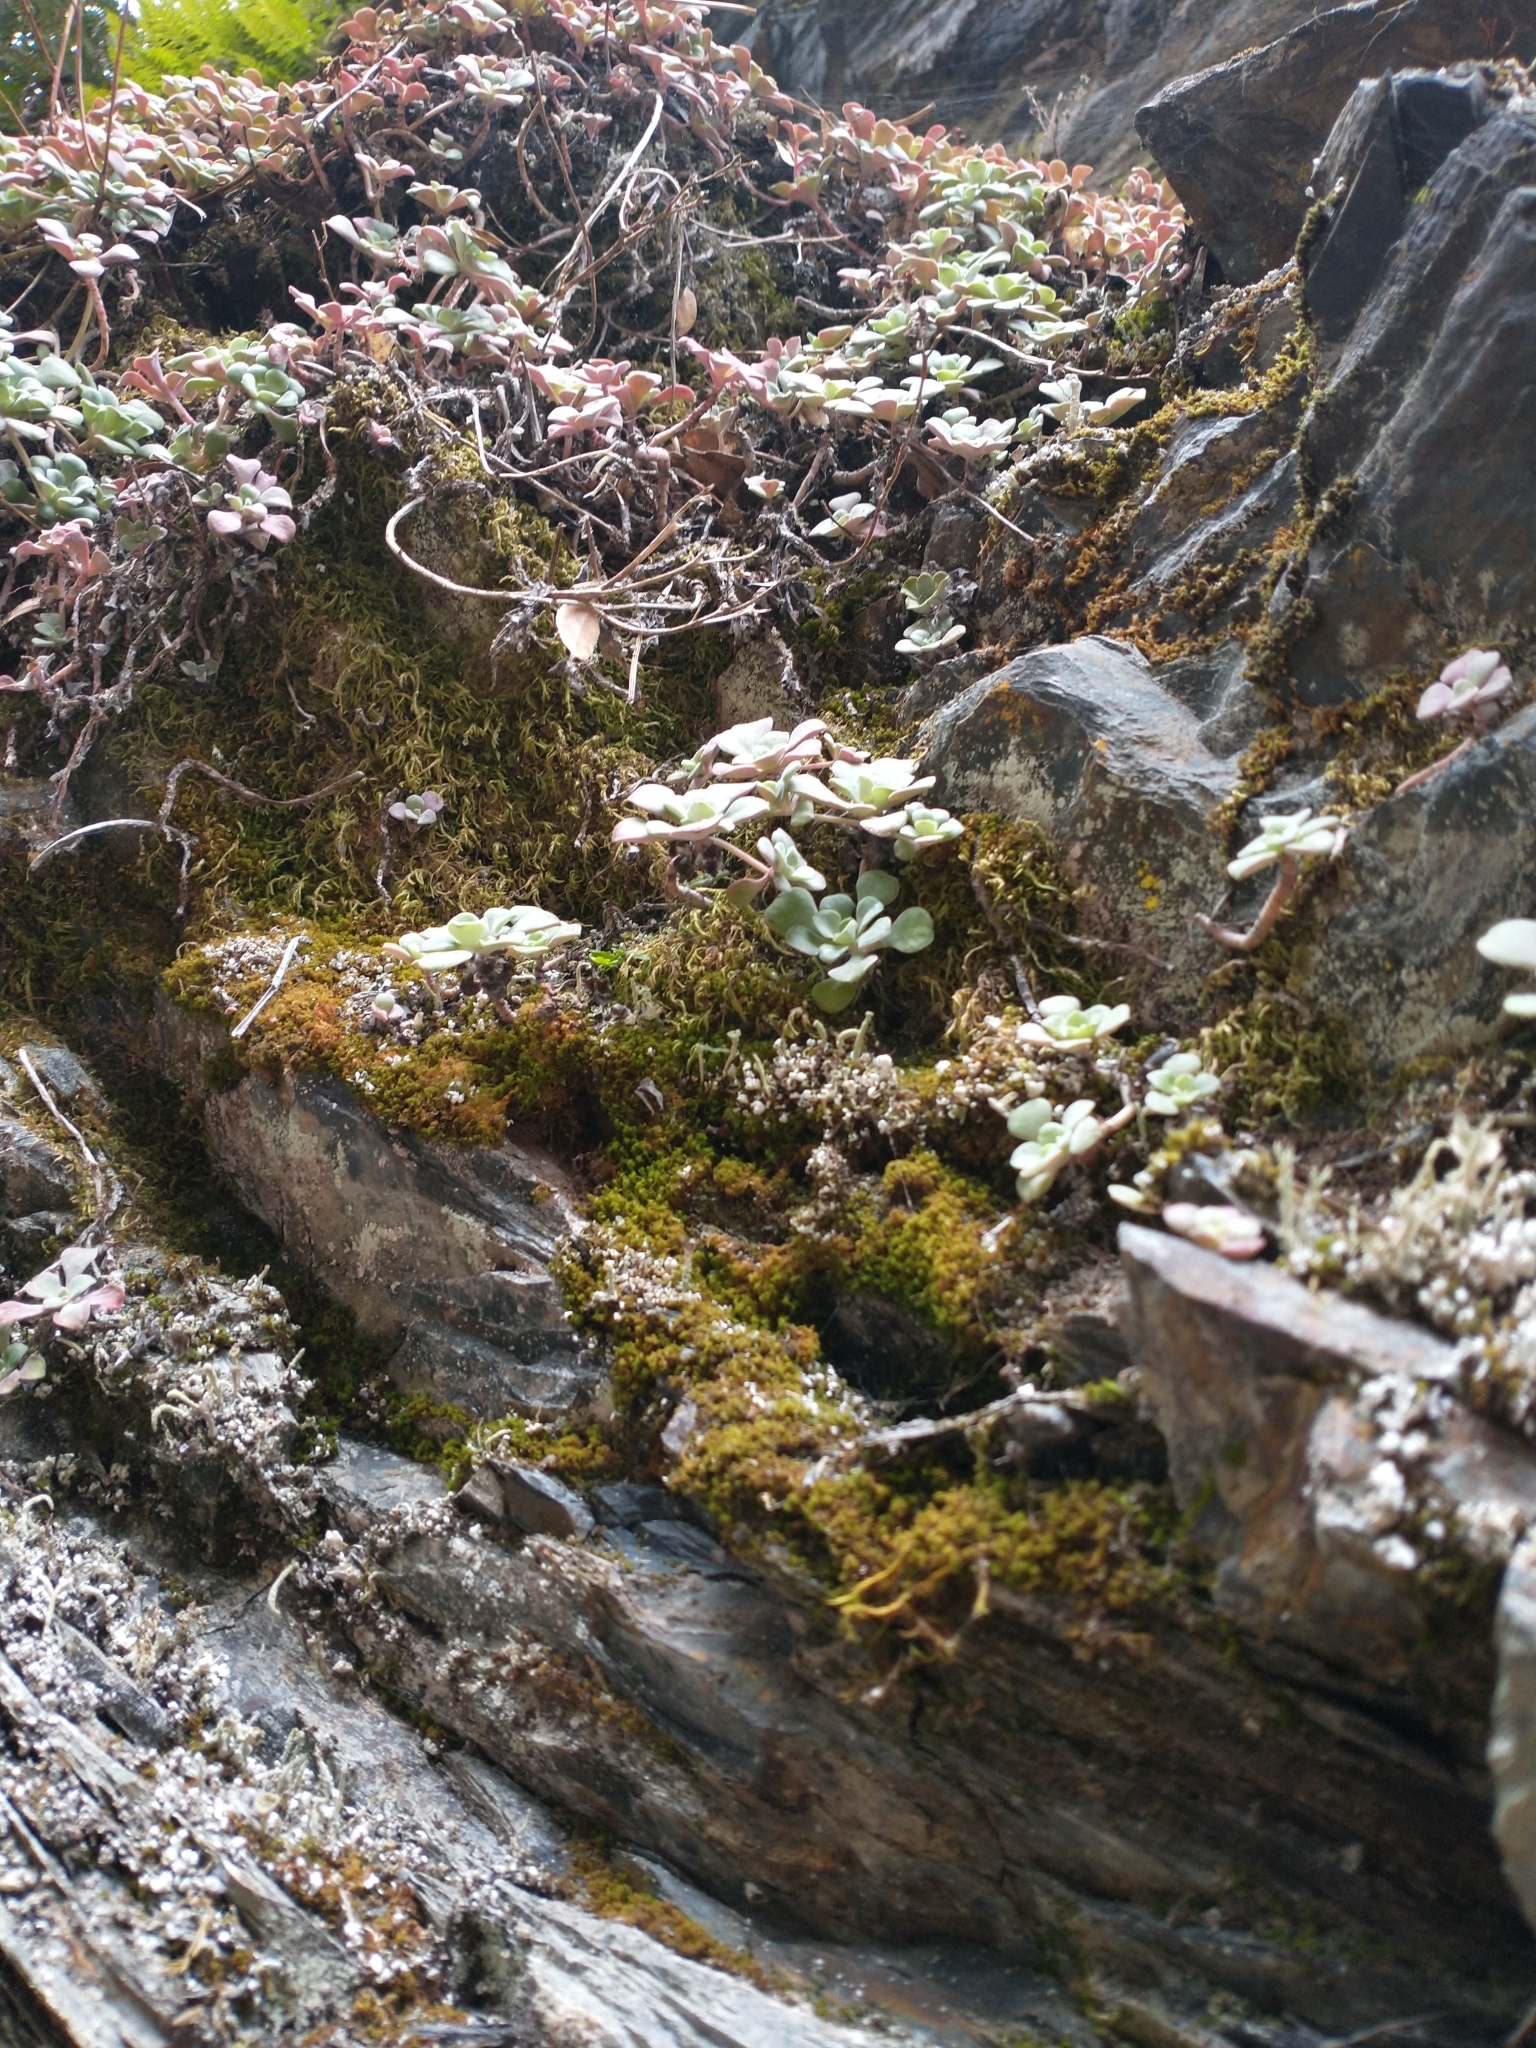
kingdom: Plantae
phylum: Tracheophyta
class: Magnoliopsida
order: Saxifragales
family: Crassulaceae
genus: Sedum
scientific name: Sedum spathulifolium
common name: Colorado stonecrop
